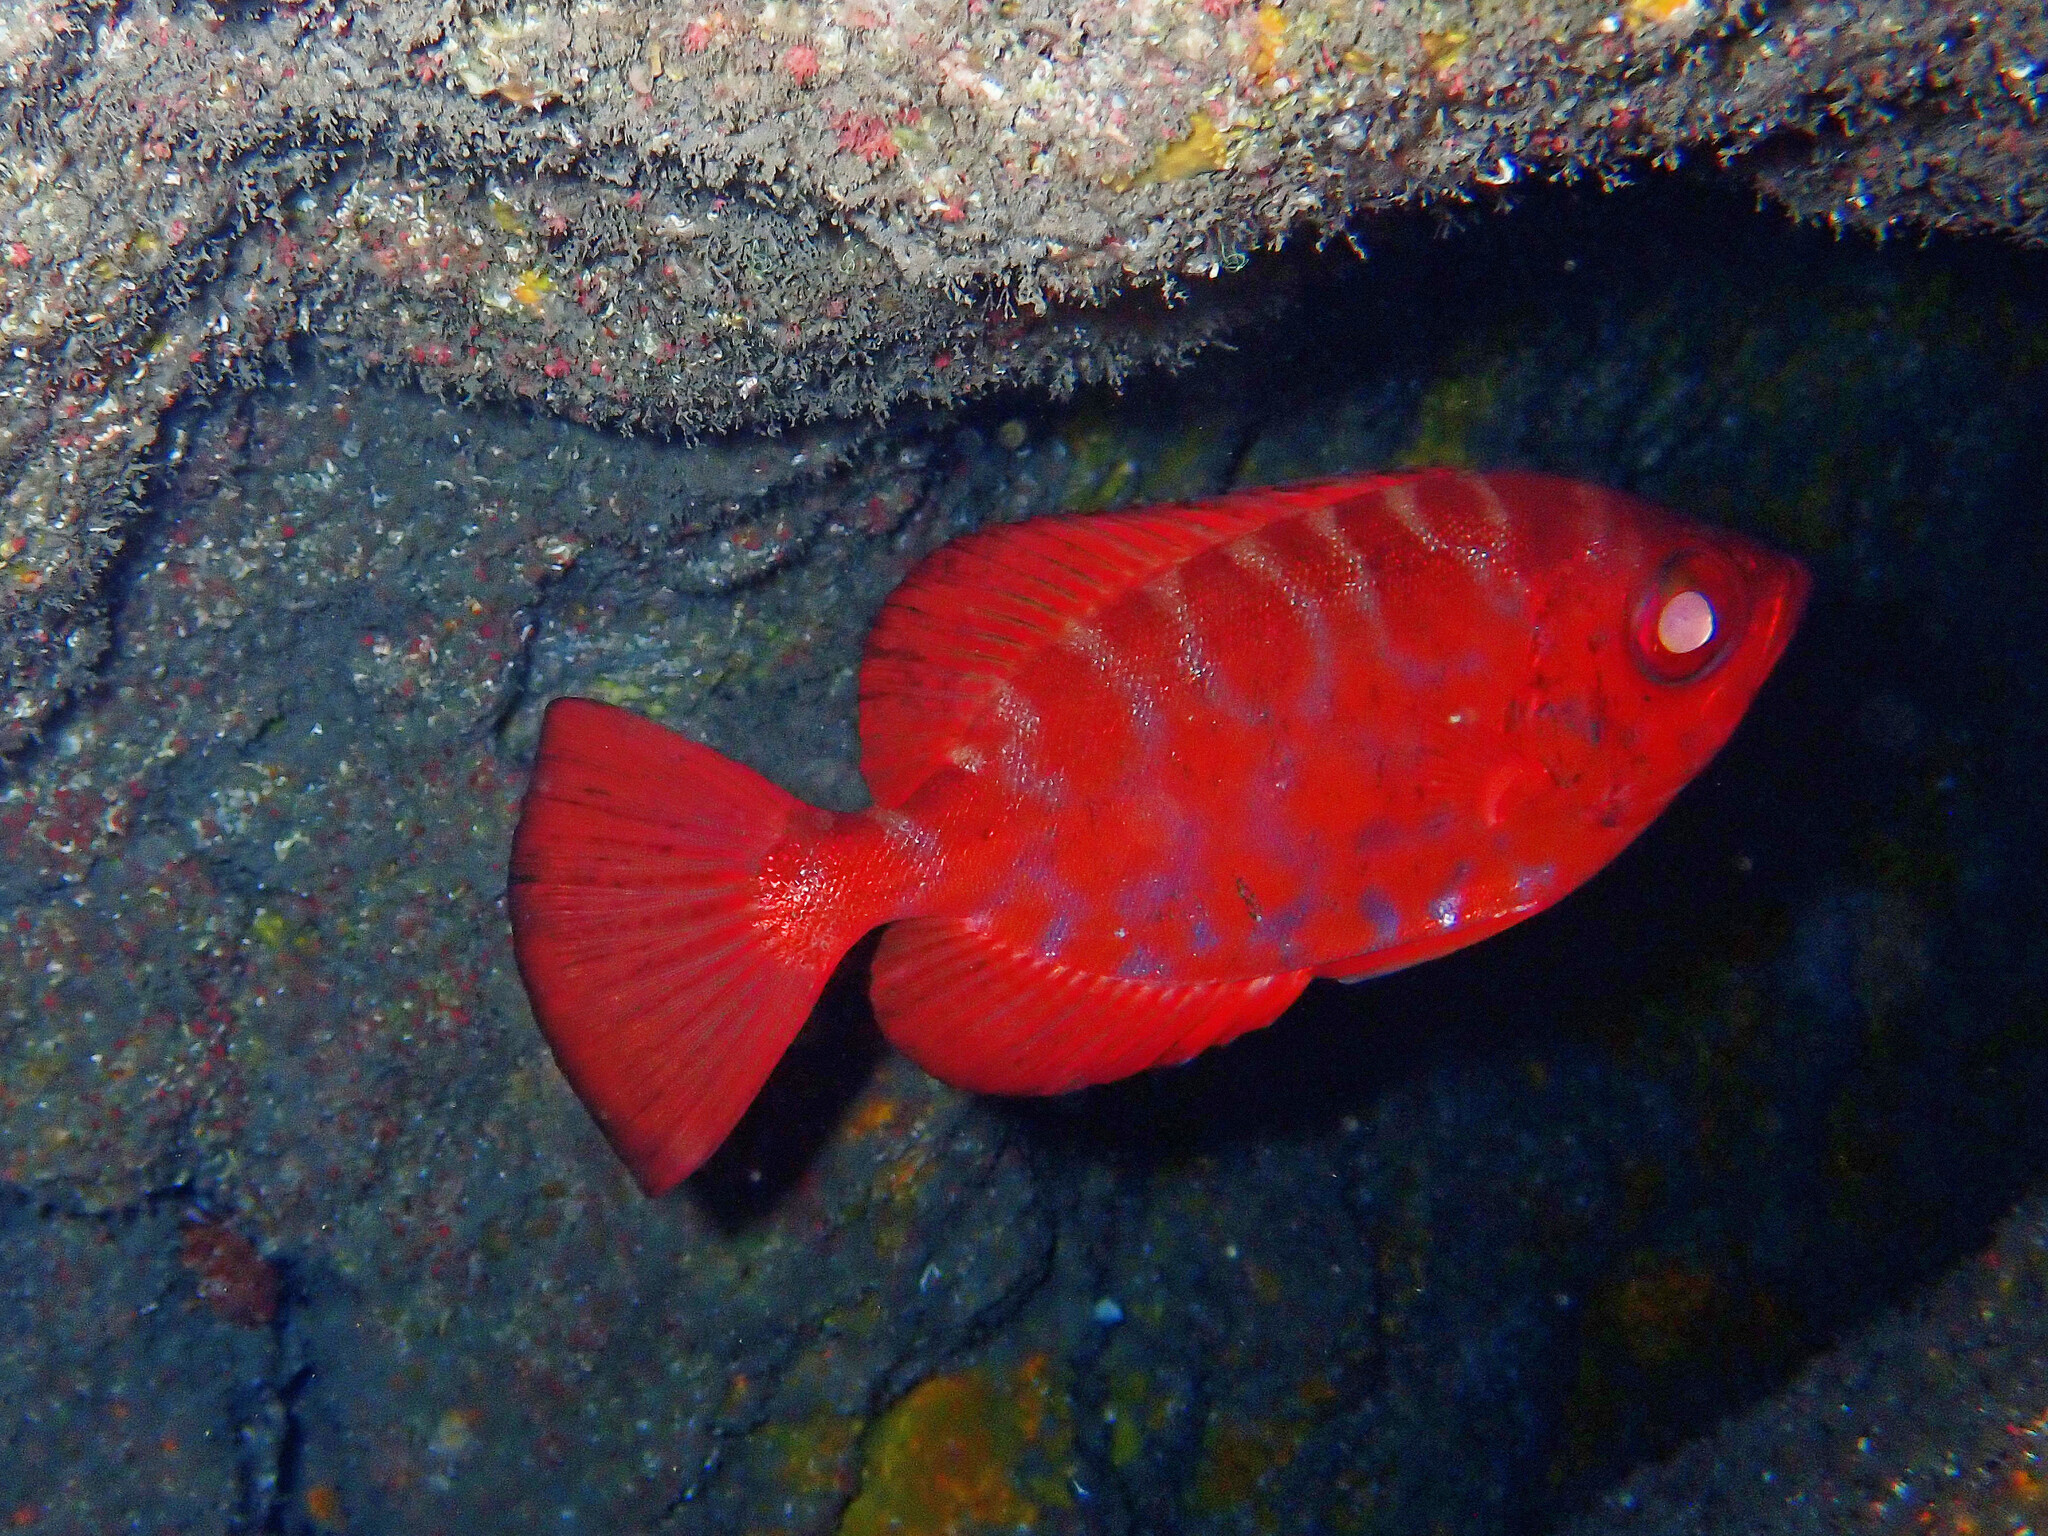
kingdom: Animalia
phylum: Chordata
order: Perciformes
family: Priacanthidae
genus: Heteropriacanthus
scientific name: Heteropriacanthus fulgens
